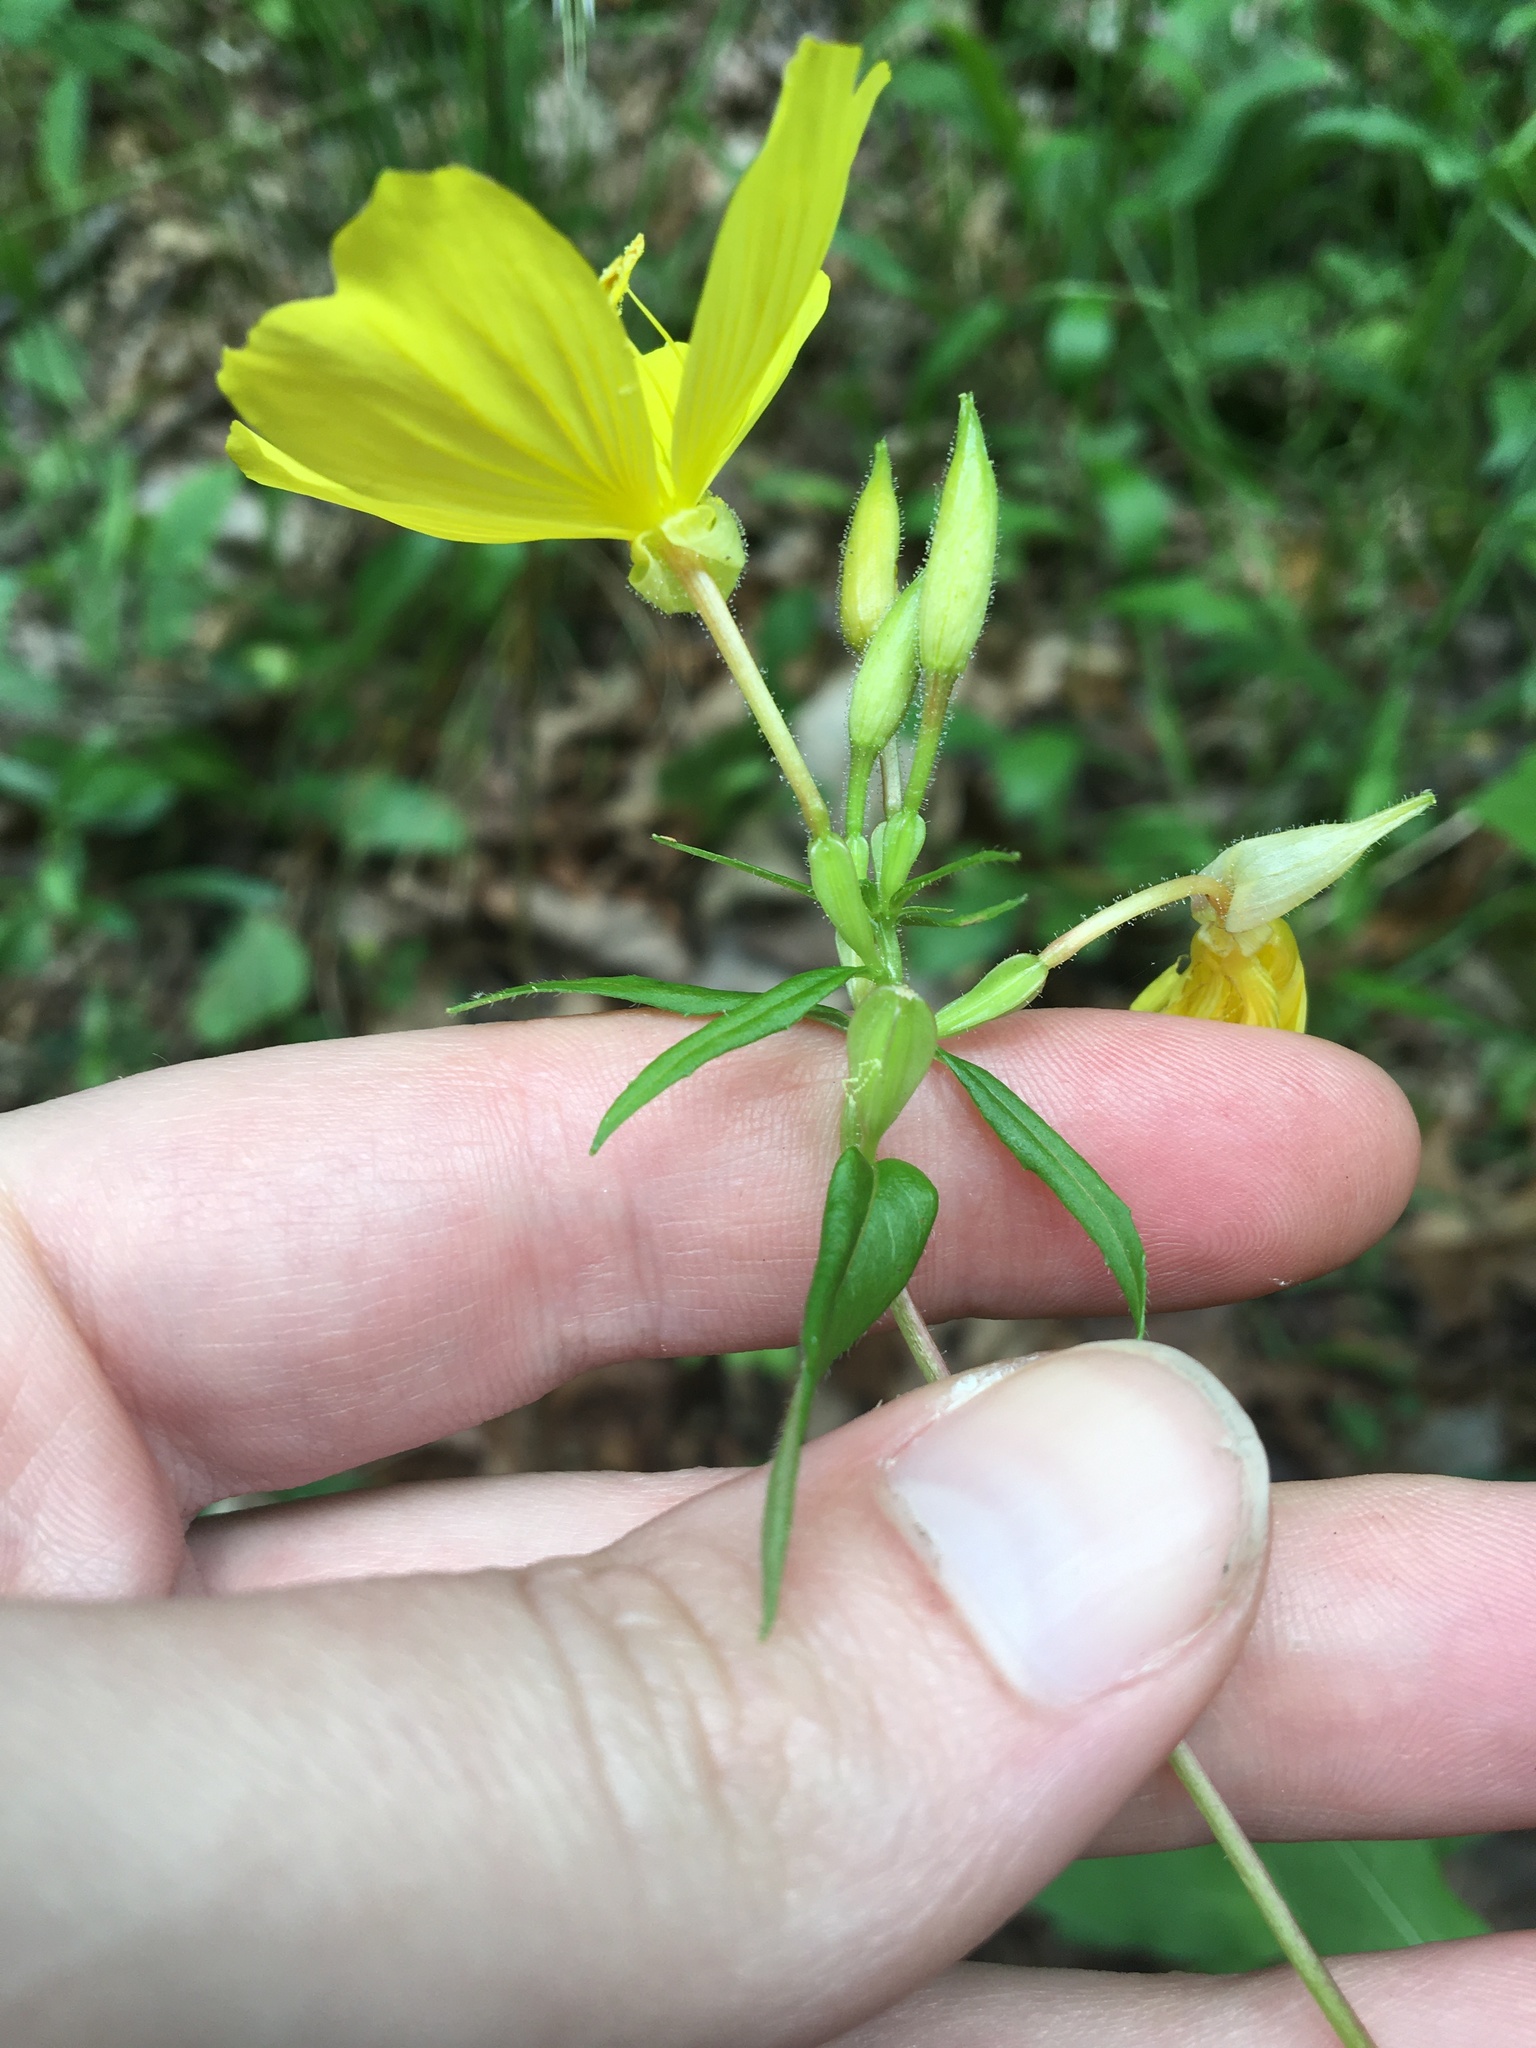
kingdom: Plantae
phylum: Tracheophyta
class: Magnoliopsida
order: Myrtales
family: Onagraceae
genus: Oenothera
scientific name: Oenothera fruticosa
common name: Southern sundrops
